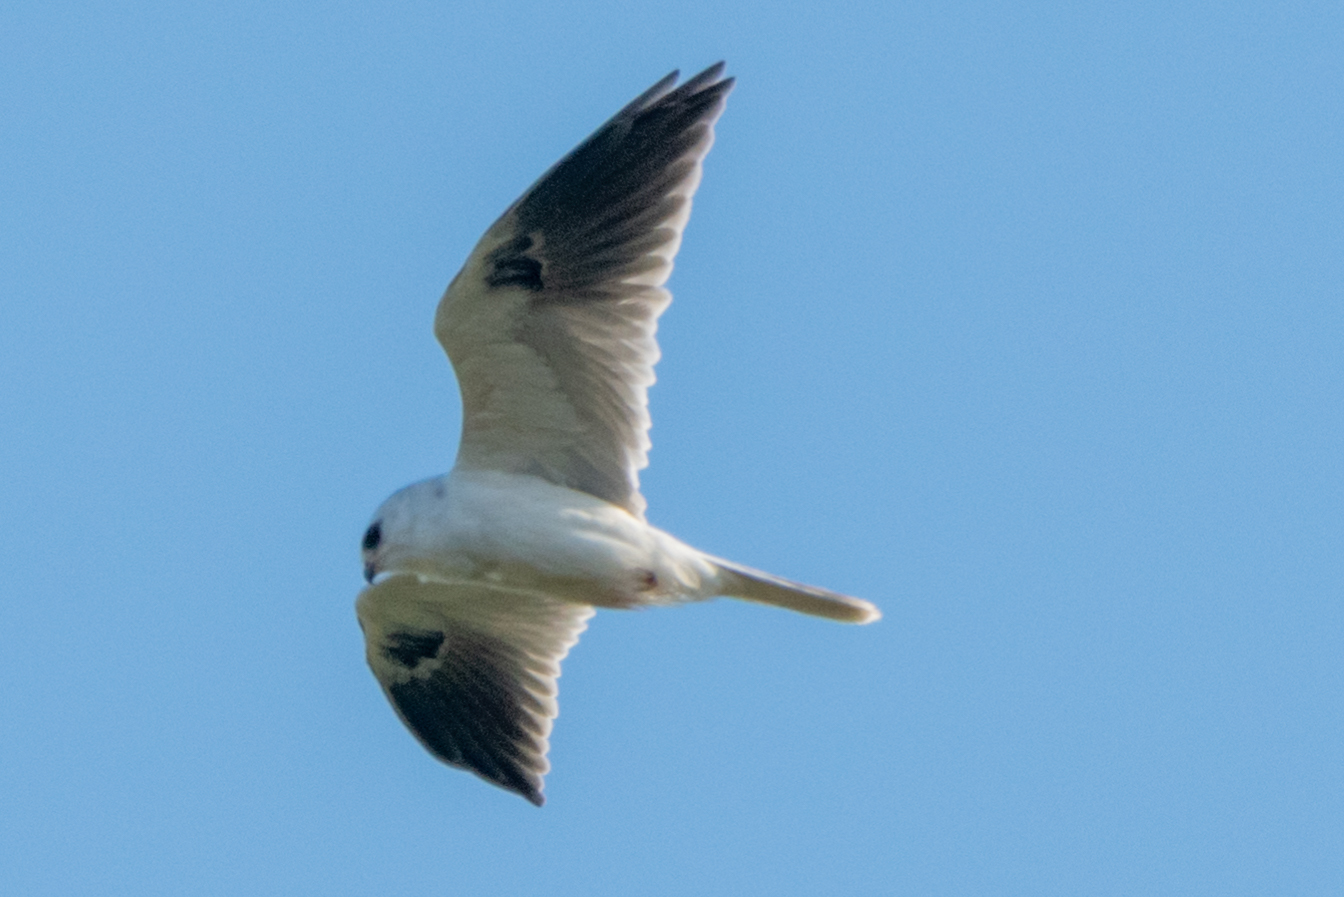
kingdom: Animalia
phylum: Chordata
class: Aves
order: Accipitriformes
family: Accipitridae
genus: Elanus
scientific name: Elanus leucurus
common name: White-tailed kite
